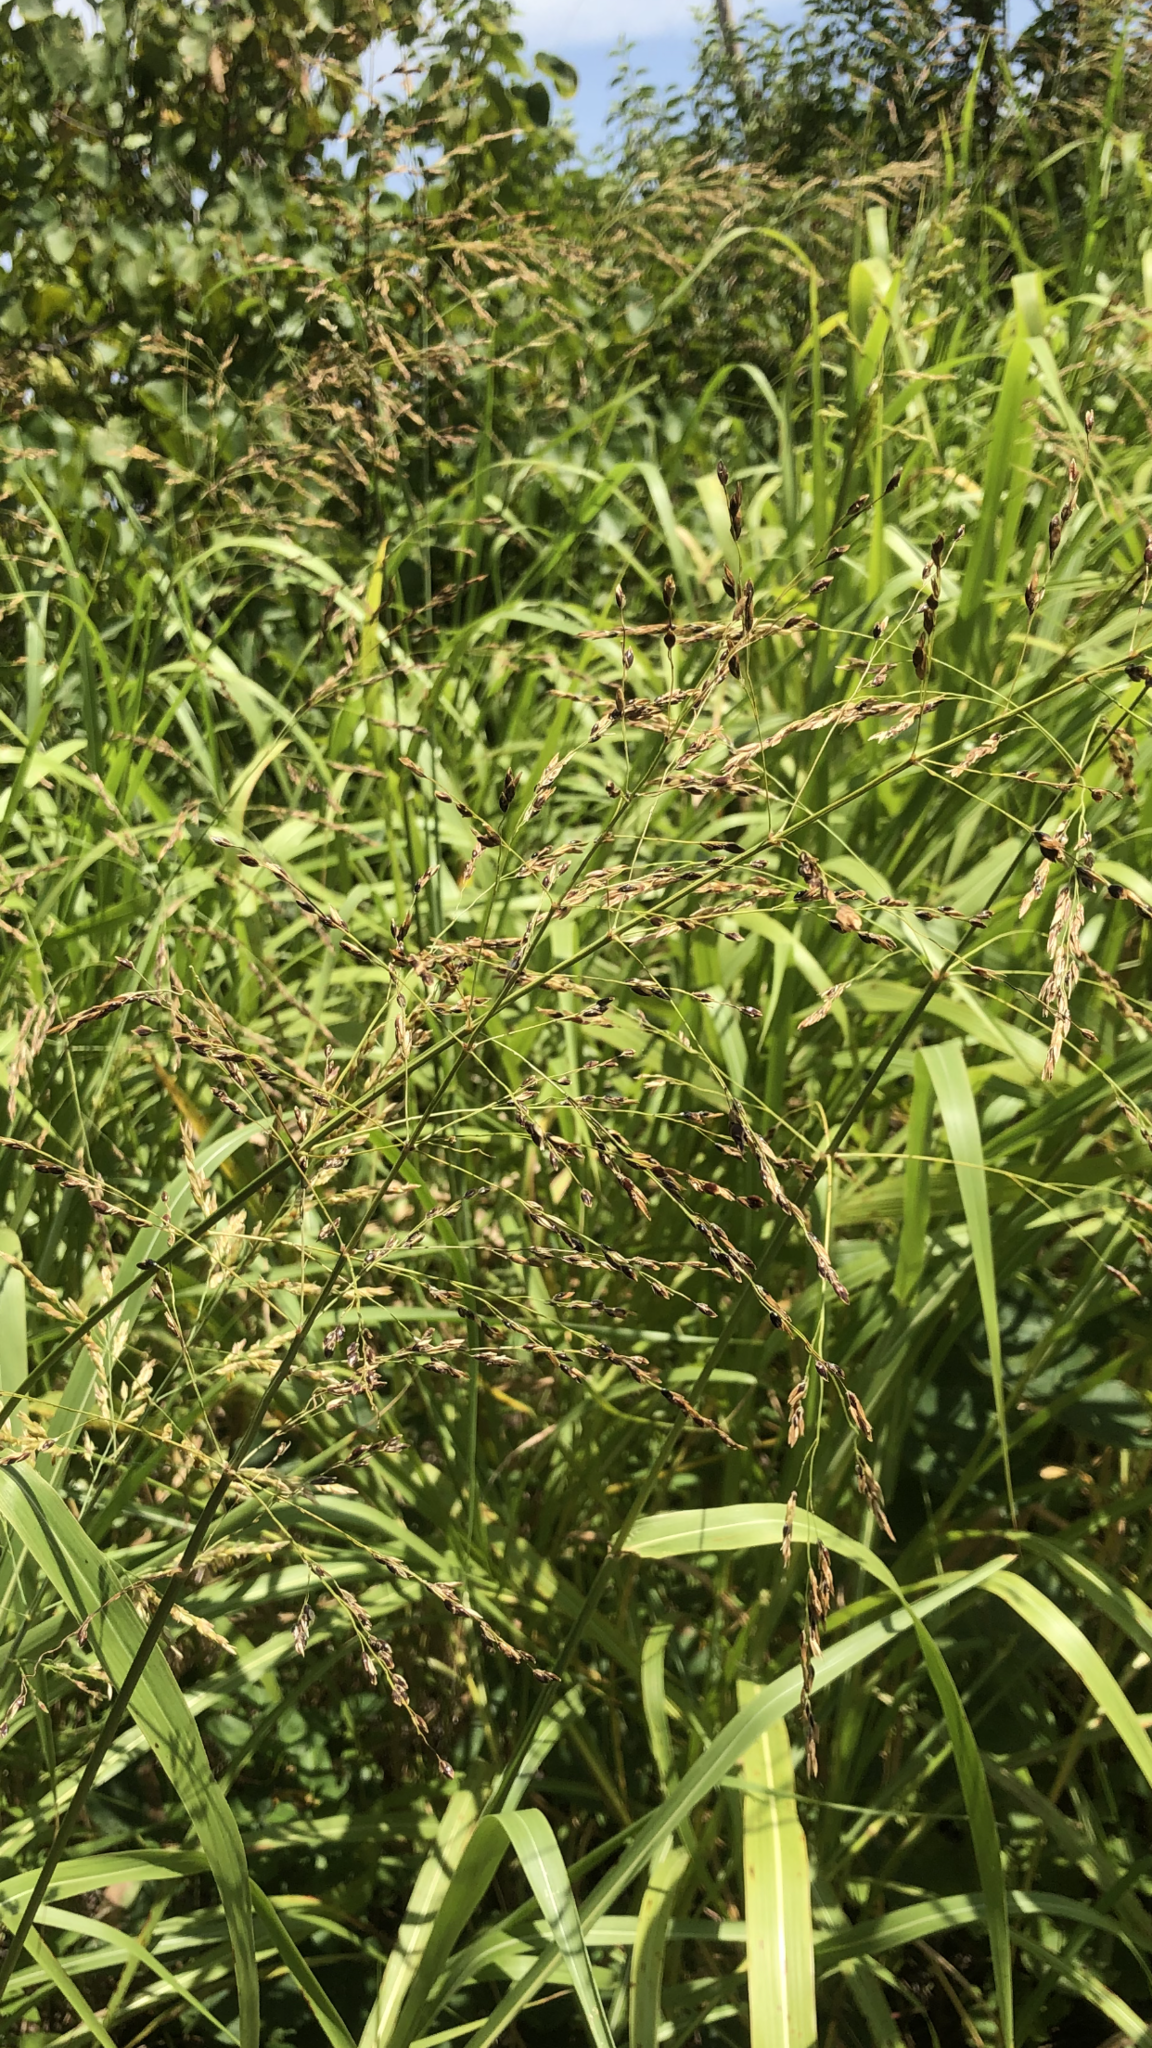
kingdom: Plantae
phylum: Tracheophyta
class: Liliopsida
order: Poales
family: Poaceae
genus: Sorghum
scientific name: Sorghum halepense
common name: Johnson-grass
